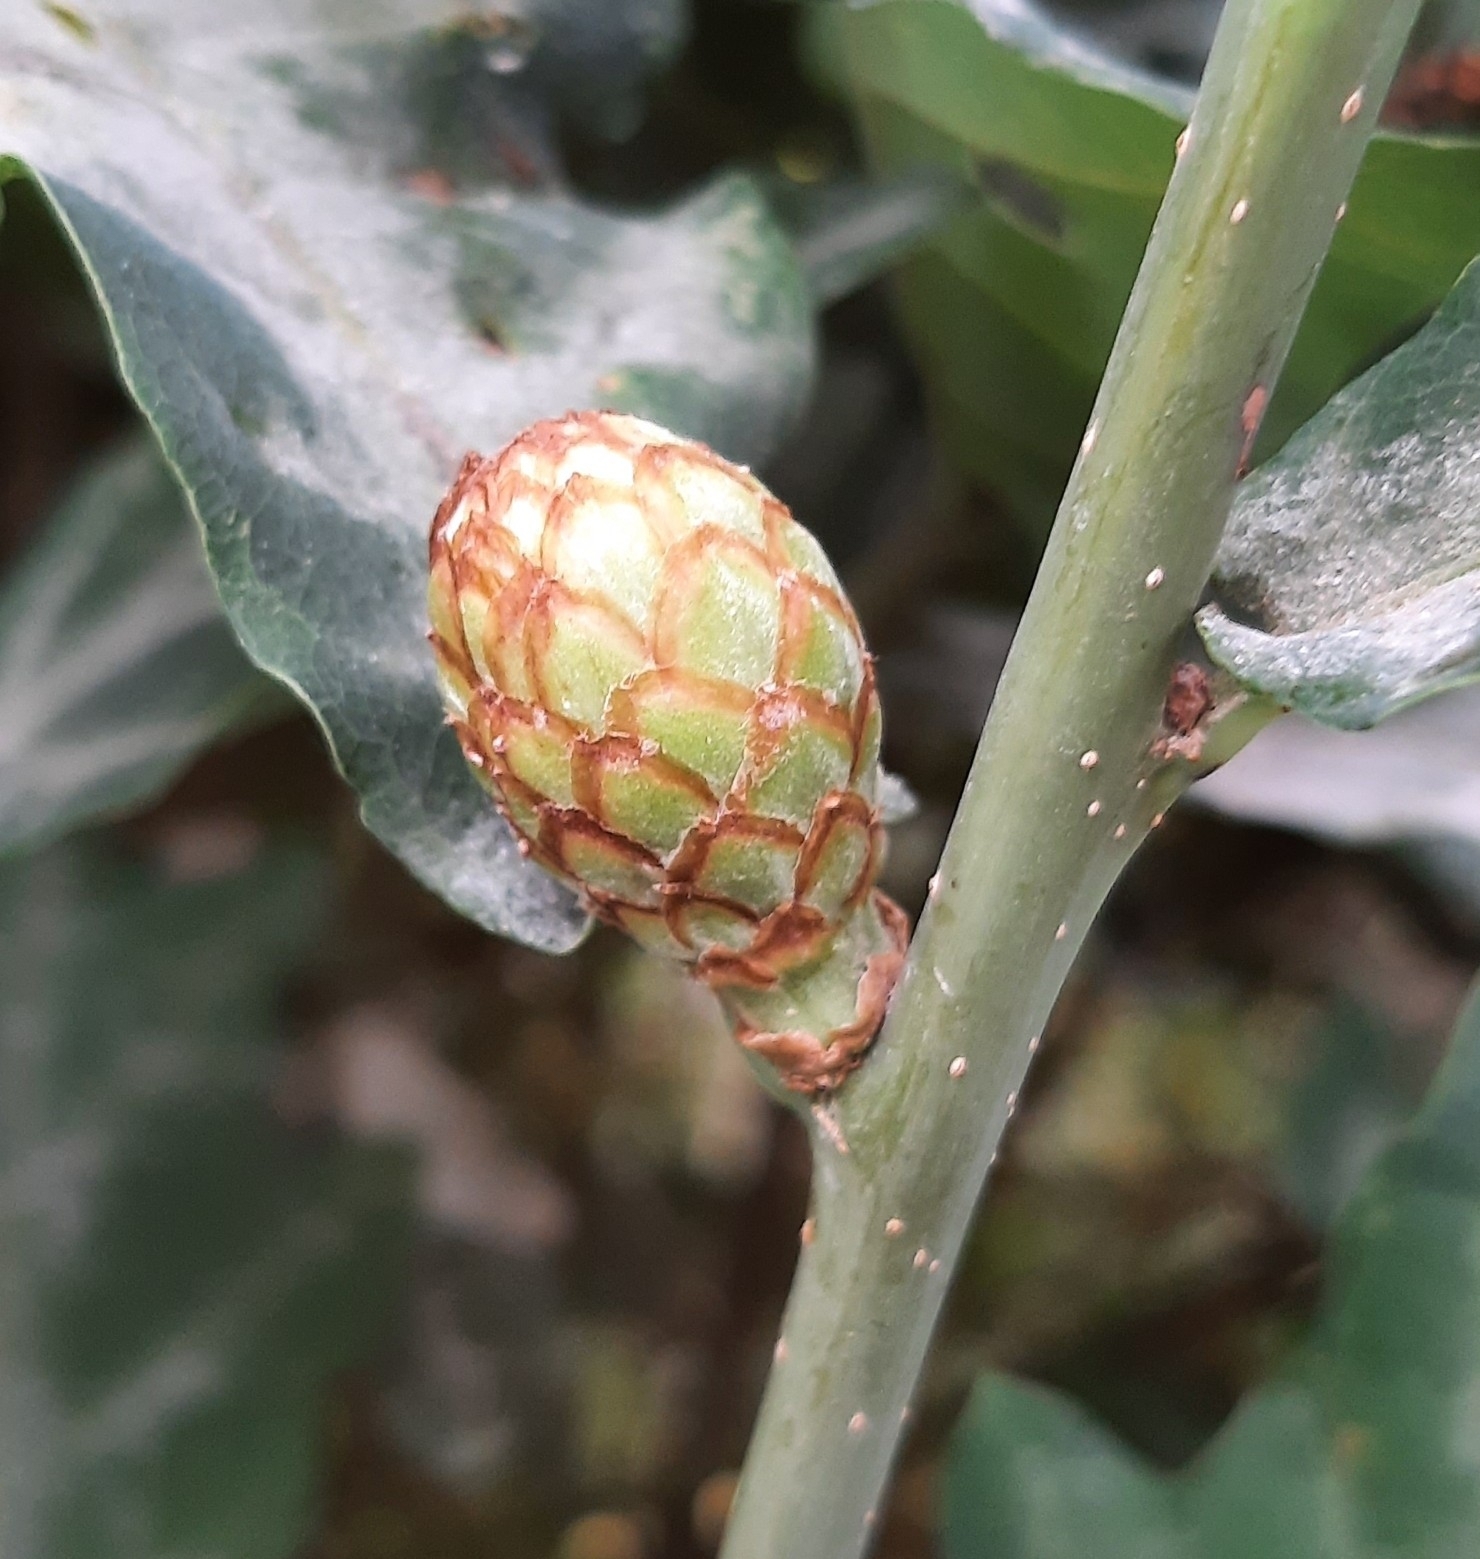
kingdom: Animalia
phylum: Arthropoda
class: Insecta
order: Hymenoptera
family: Cynipidae
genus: Andricus
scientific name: Andricus foecundatrix
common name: Artichoke gall
